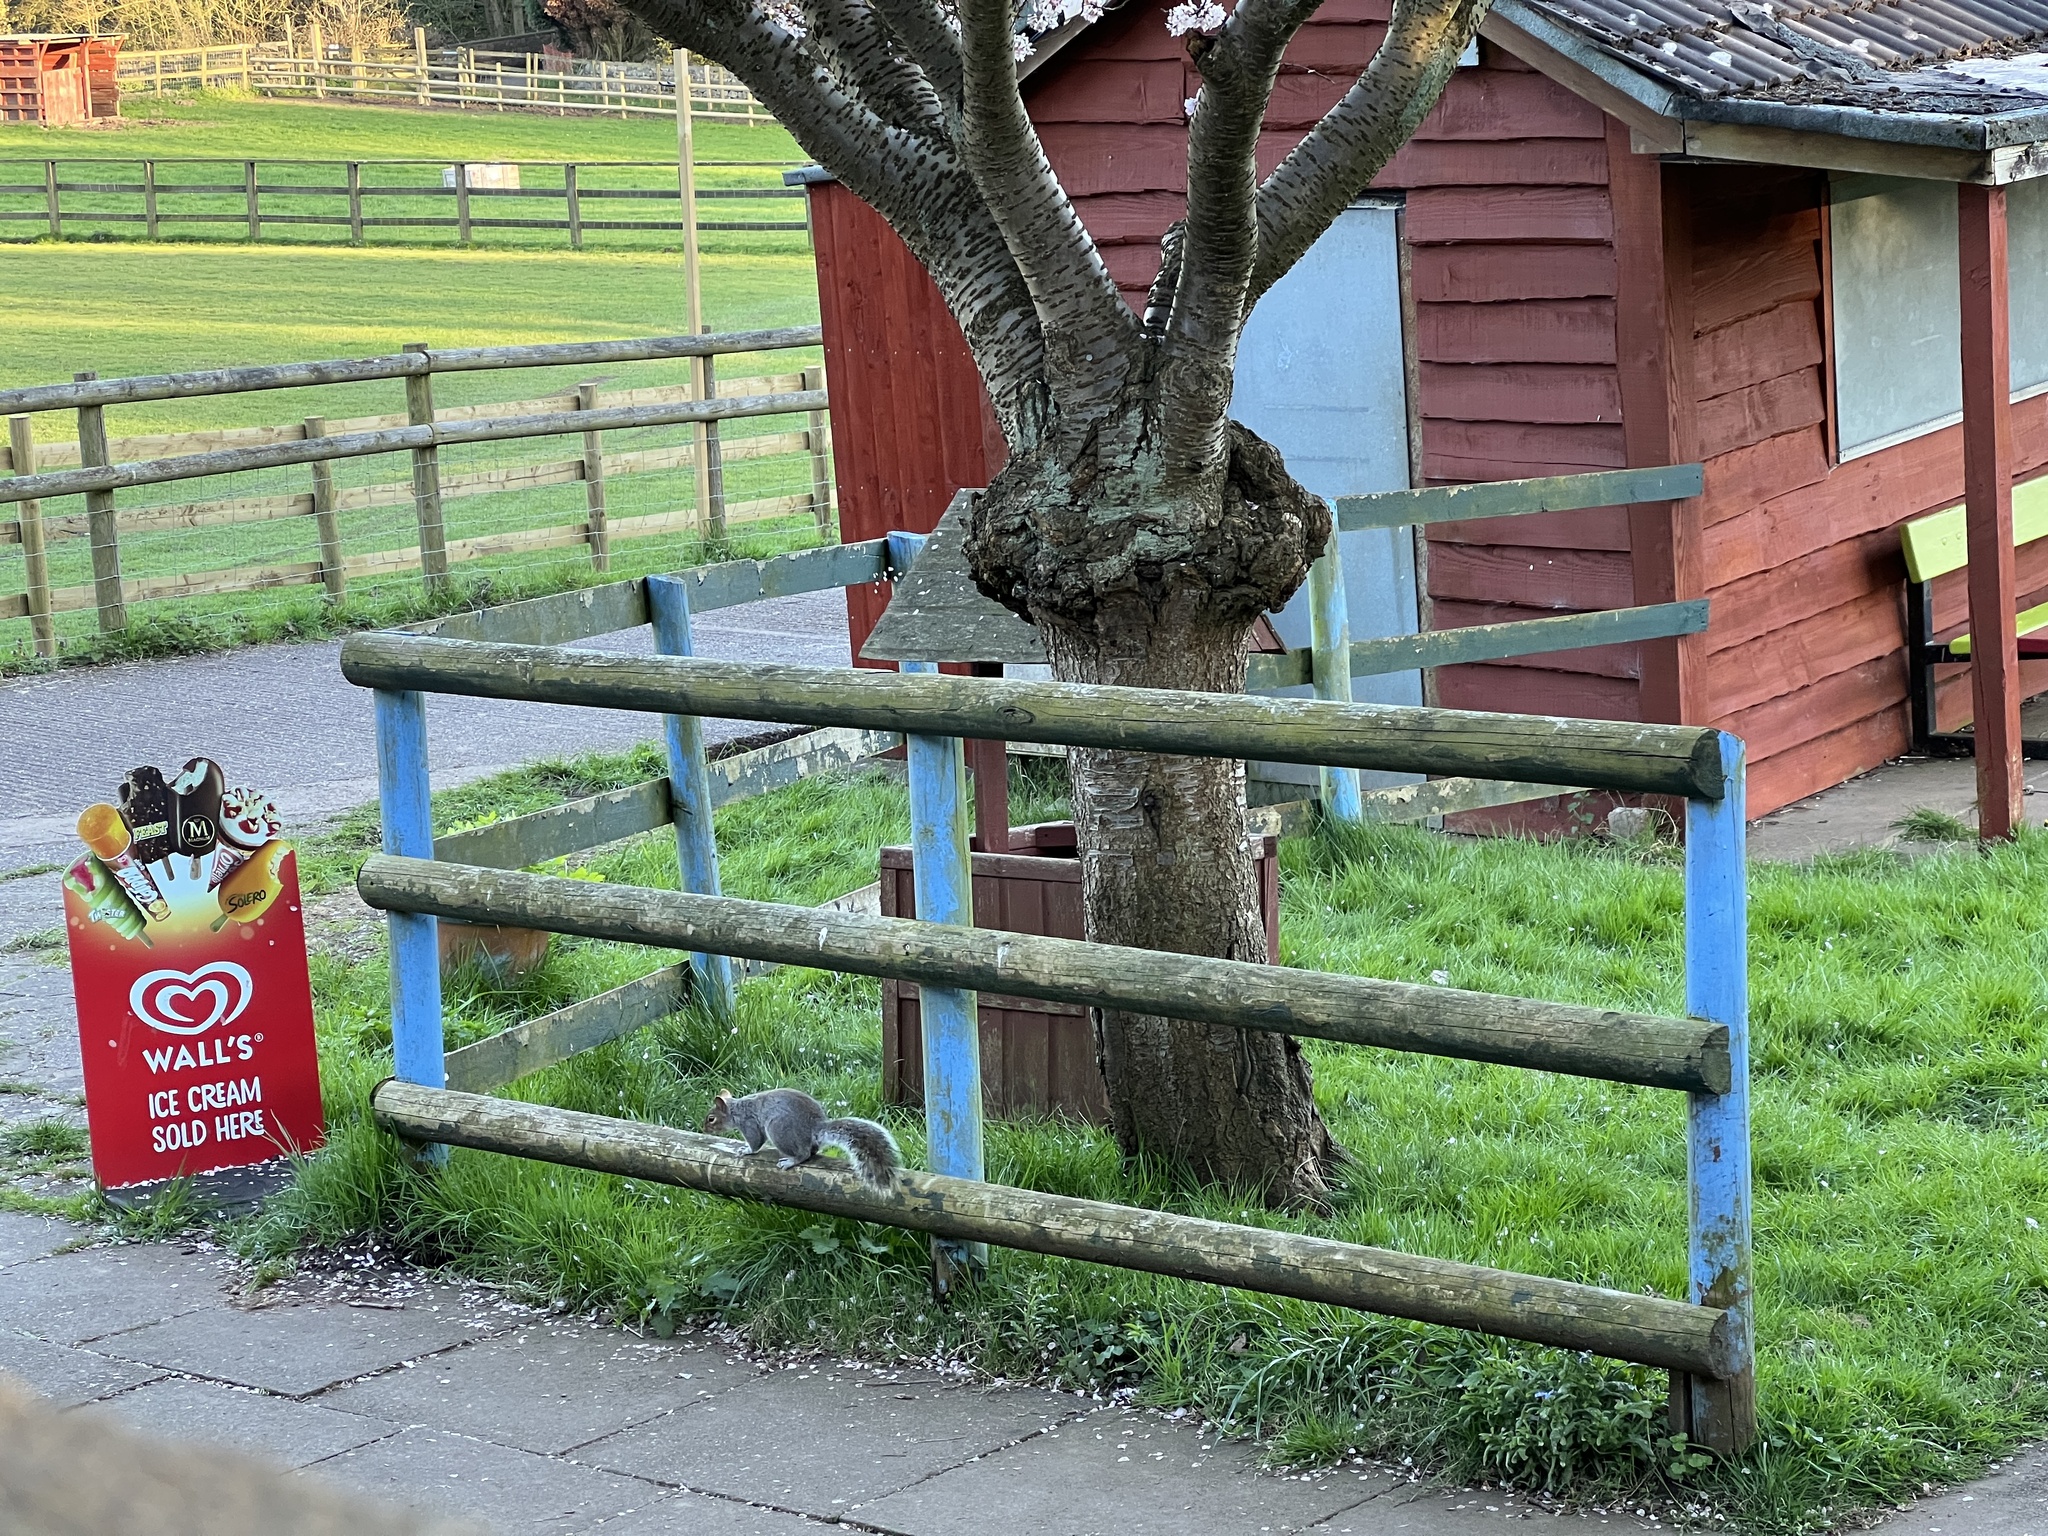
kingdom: Animalia
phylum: Chordata
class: Mammalia
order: Rodentia
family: Sciuridae
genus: Sciurus
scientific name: Sciurus carolinensis
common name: Eastern gray squirrel
